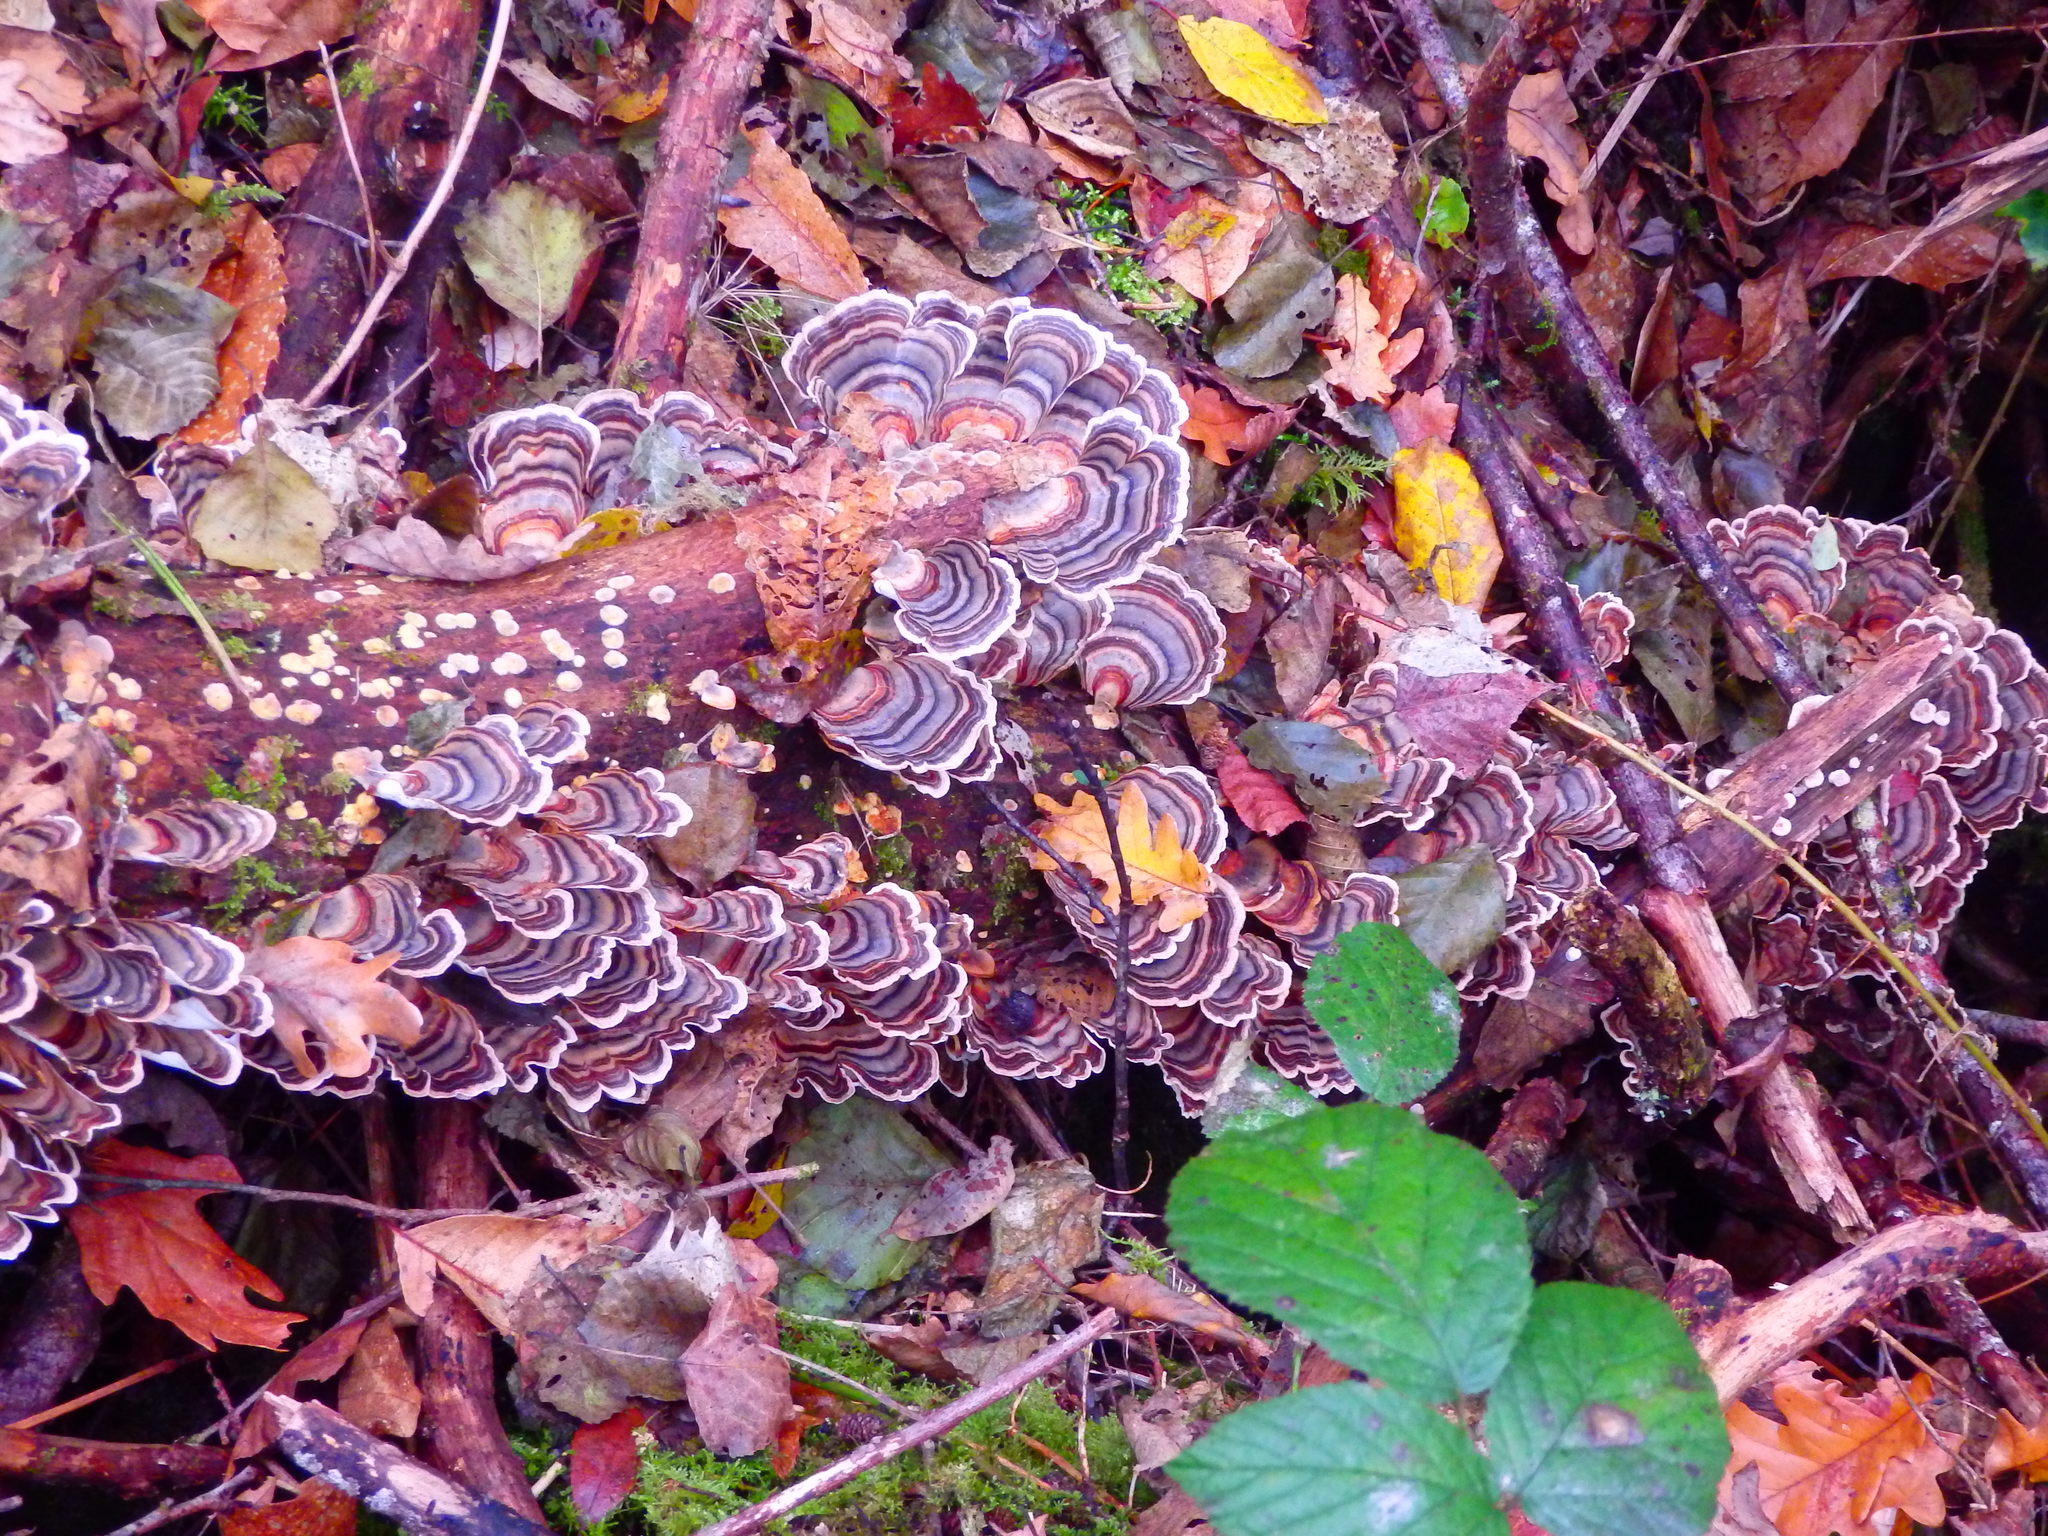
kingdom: Fungi
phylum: Basidiomycota
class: Agaricomycetes
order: Polyporales
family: Polyporaceae
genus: Trametes
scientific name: Trametes versicolor
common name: Turkeytail
